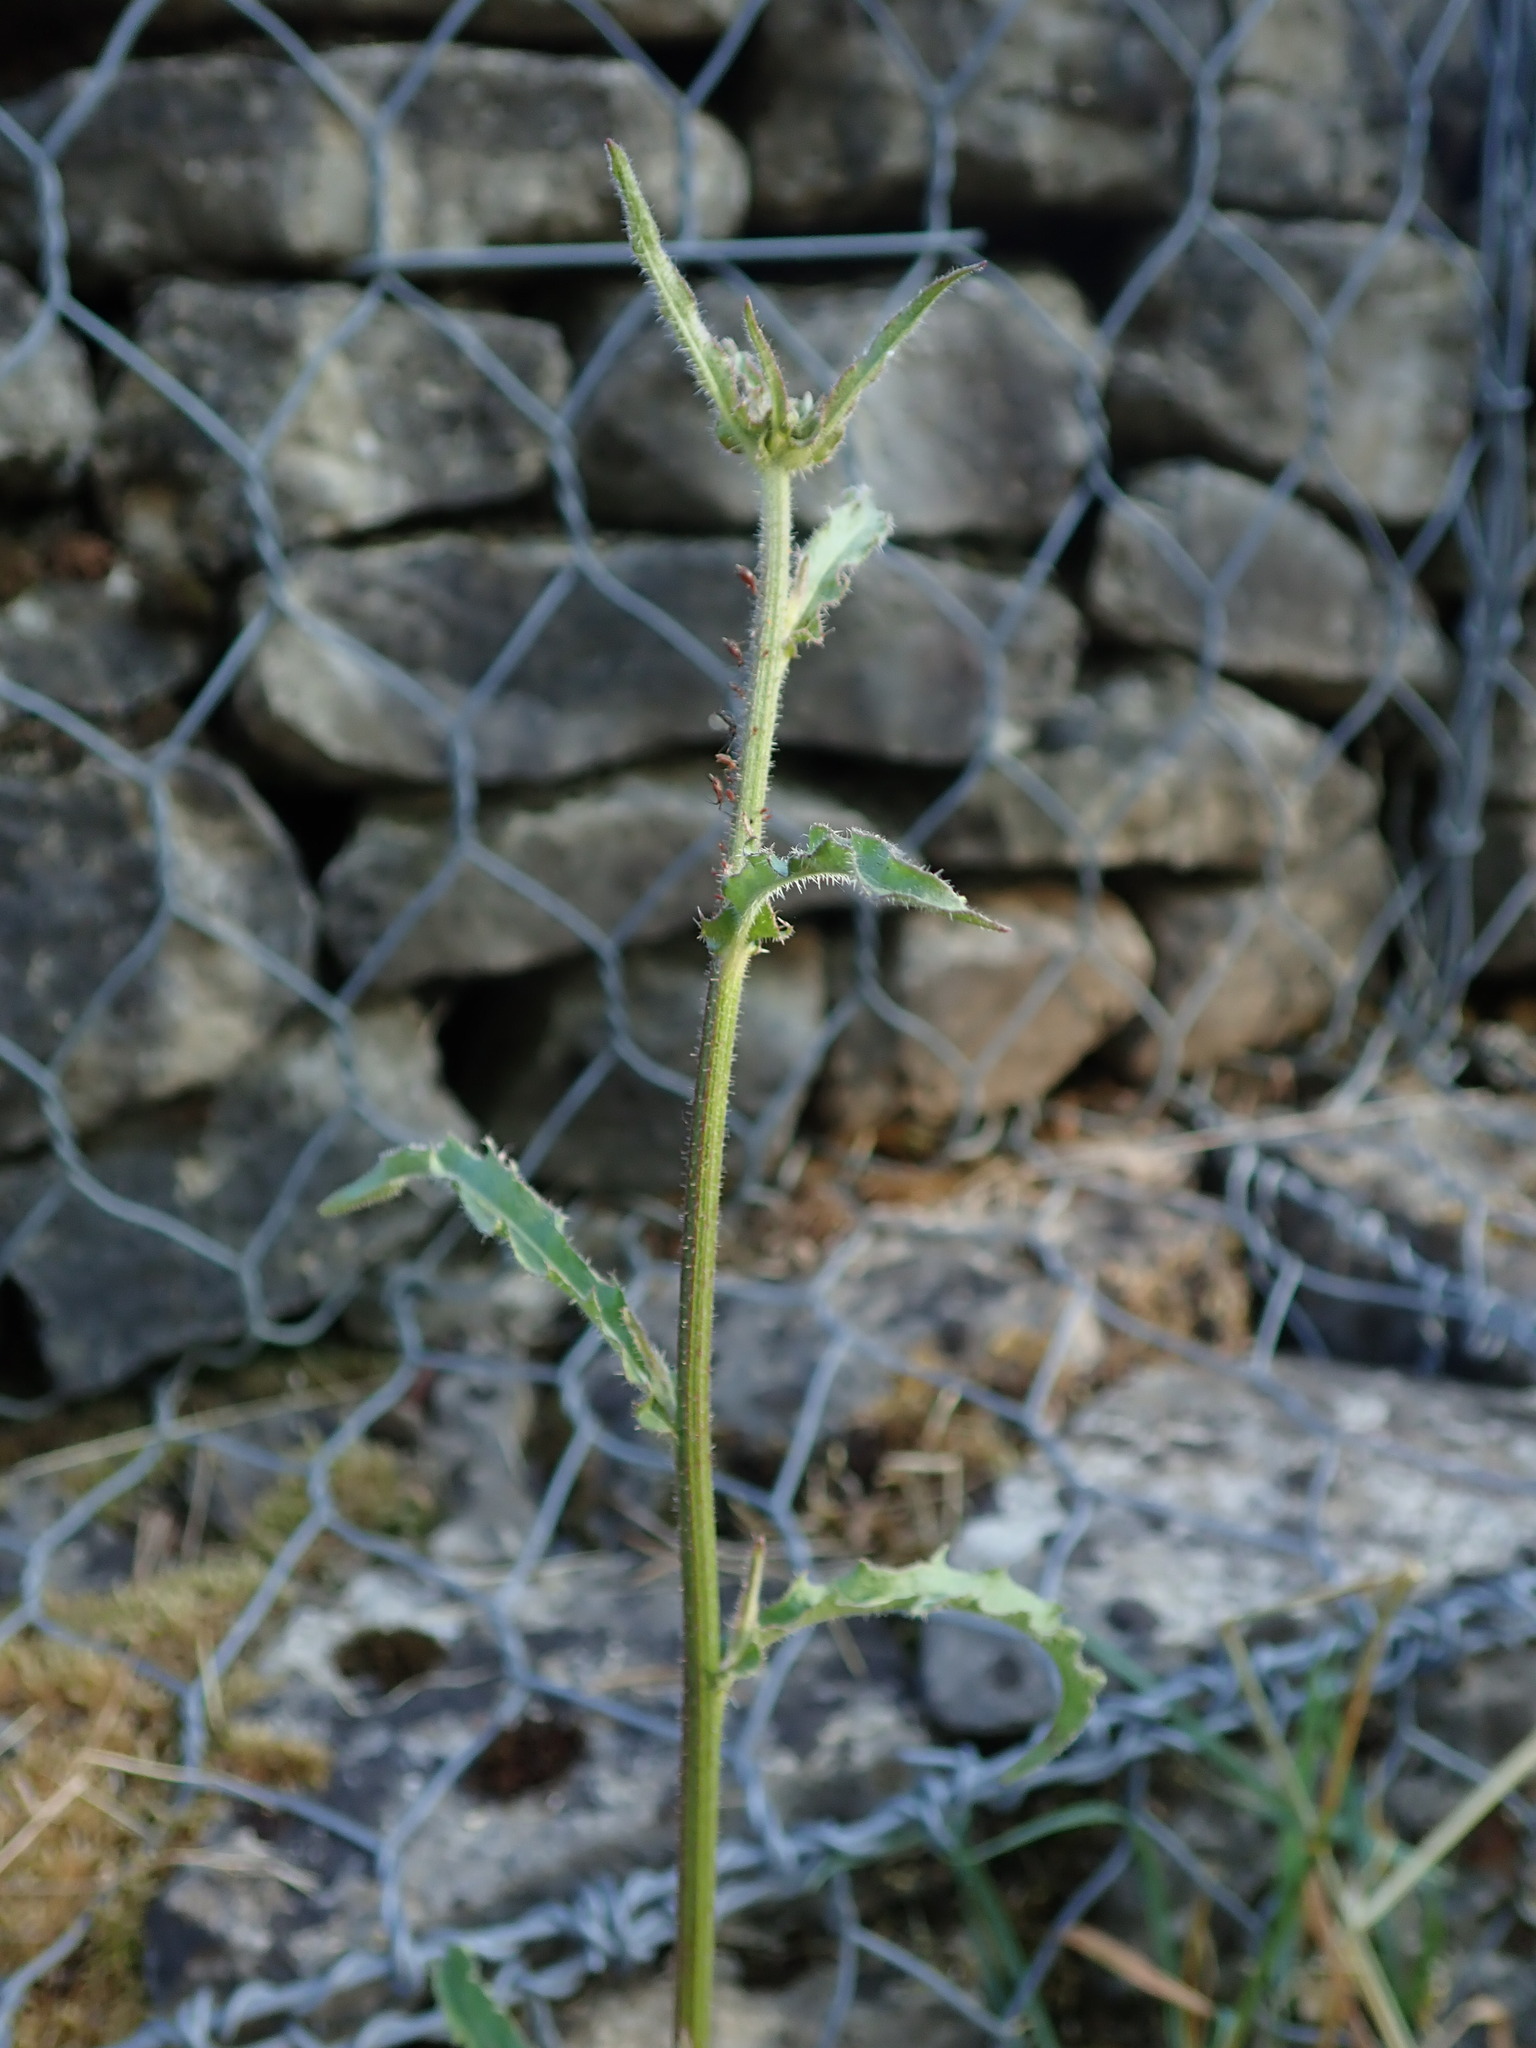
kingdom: Plantae
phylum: Tracheophyta
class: Magnoliopsida
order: Asterales
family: Asteraceae
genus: Picris
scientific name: Picris hieracioides
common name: Hawkweed oxtongue
